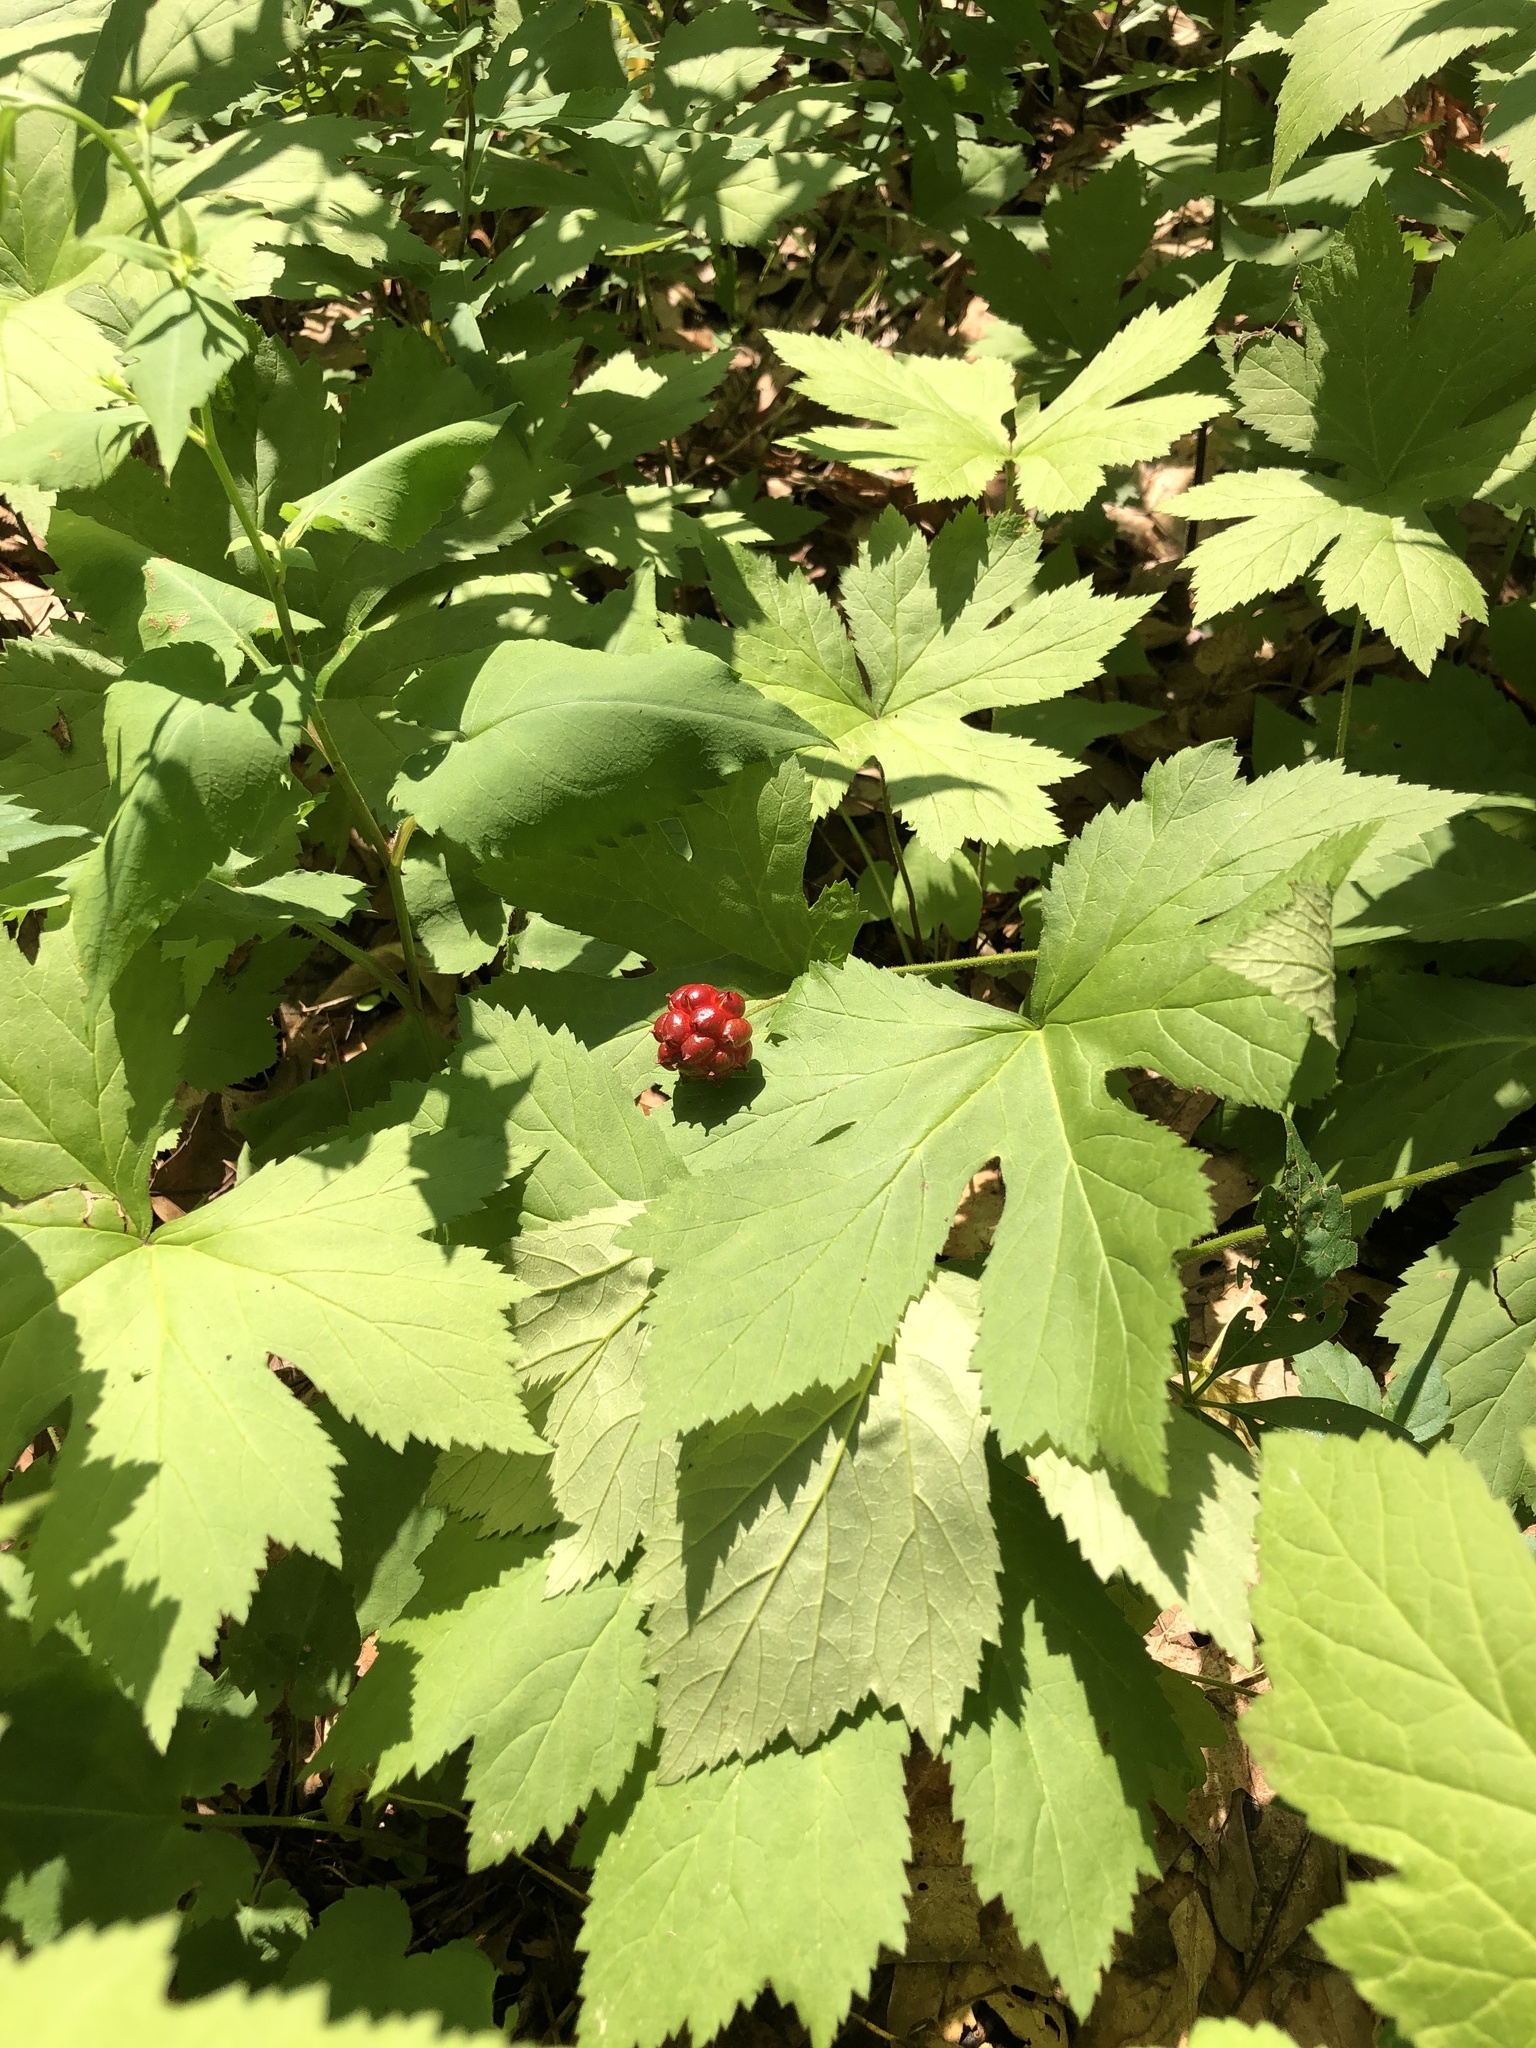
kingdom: Plantae
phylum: Tracheophyta
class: Magnoliopsida
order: Ranunculales
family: Ranunculaceae
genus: Hydrastis
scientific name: Hydrastis canadensis
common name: Goldenseal
